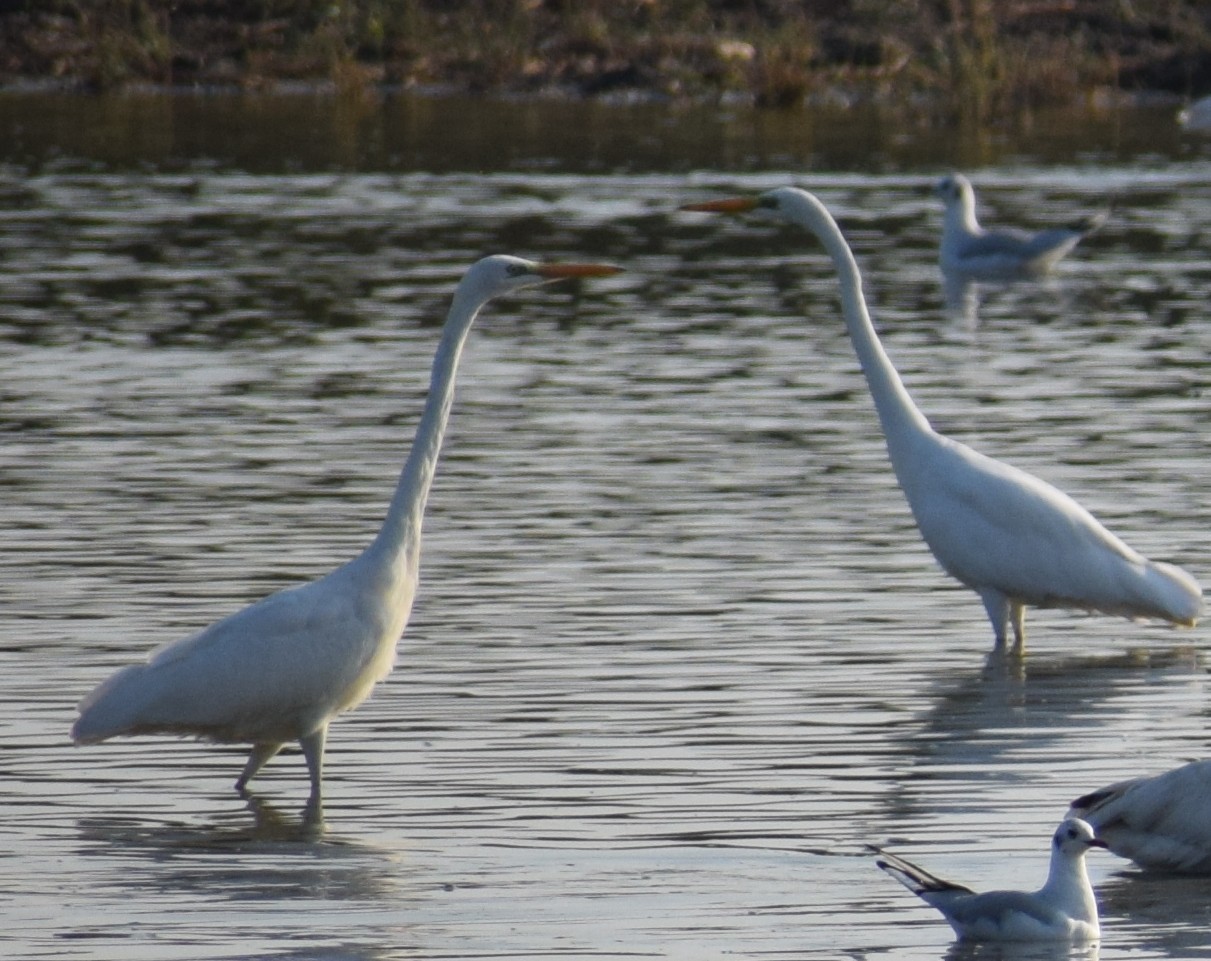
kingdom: Animalia
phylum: Chordata
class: Aves
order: Pelecaniformes
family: Ardeidae
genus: Ardea
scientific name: Ardea alba
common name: Great egret
